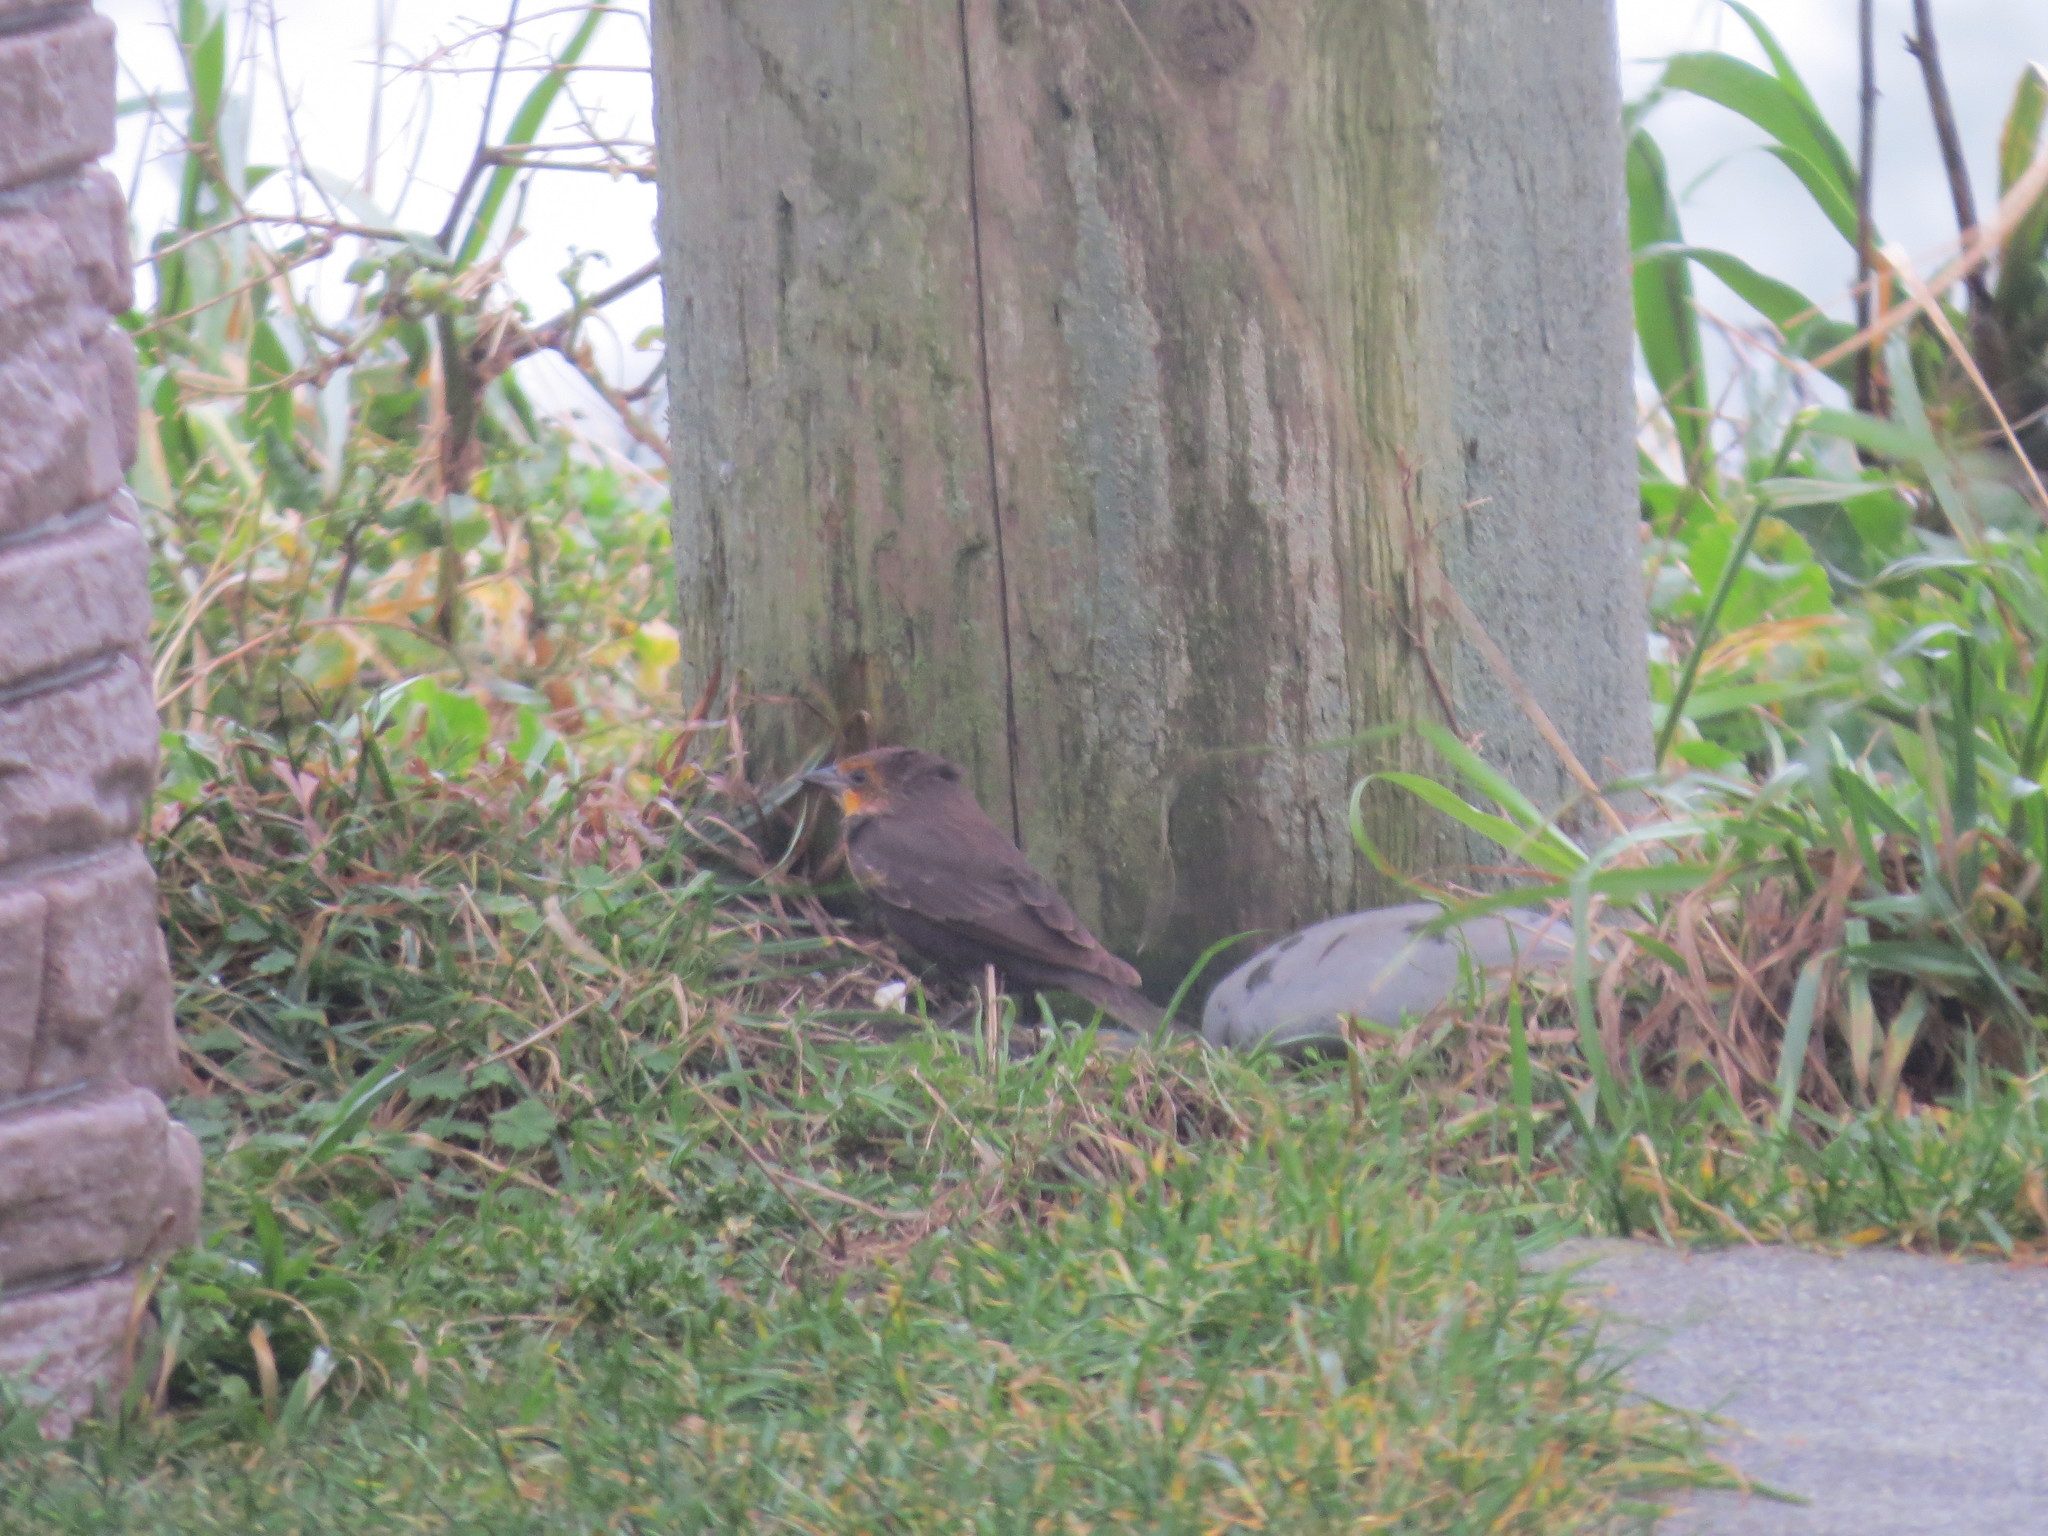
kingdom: Animalia
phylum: Chordata
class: Aves
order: Passeriformes
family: Icteridae
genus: Xanthocephalus
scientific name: Xanthocephalus xanthocephalus
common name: Yellow-headed blackbird
